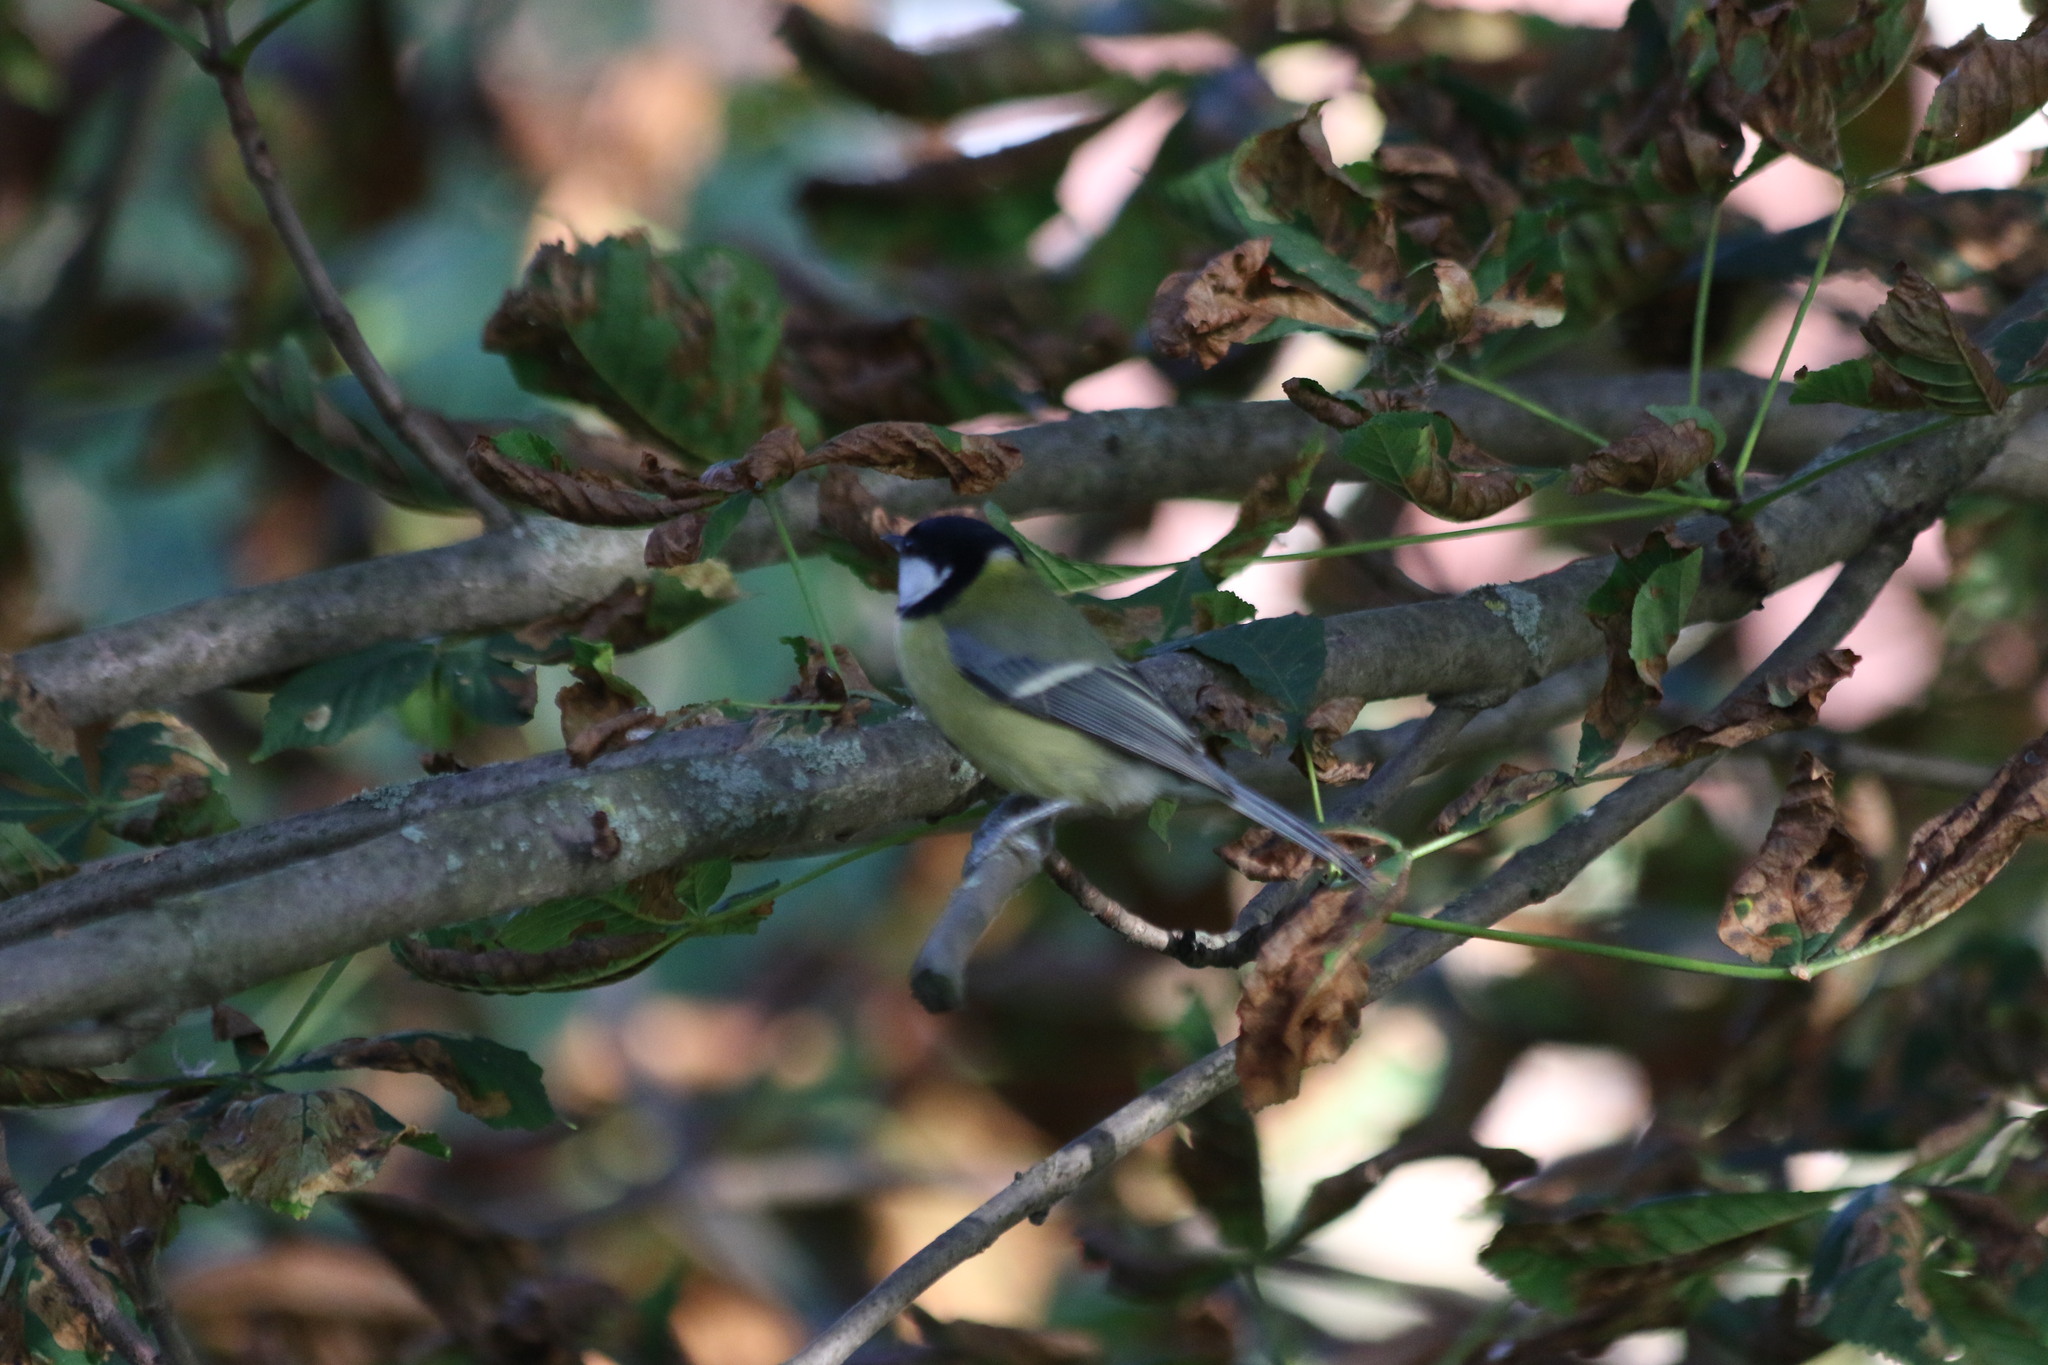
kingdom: Animalia
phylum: Chordata
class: Aves
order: Passeriformes
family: Paridae
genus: Parus
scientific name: Parus major
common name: Great tit
